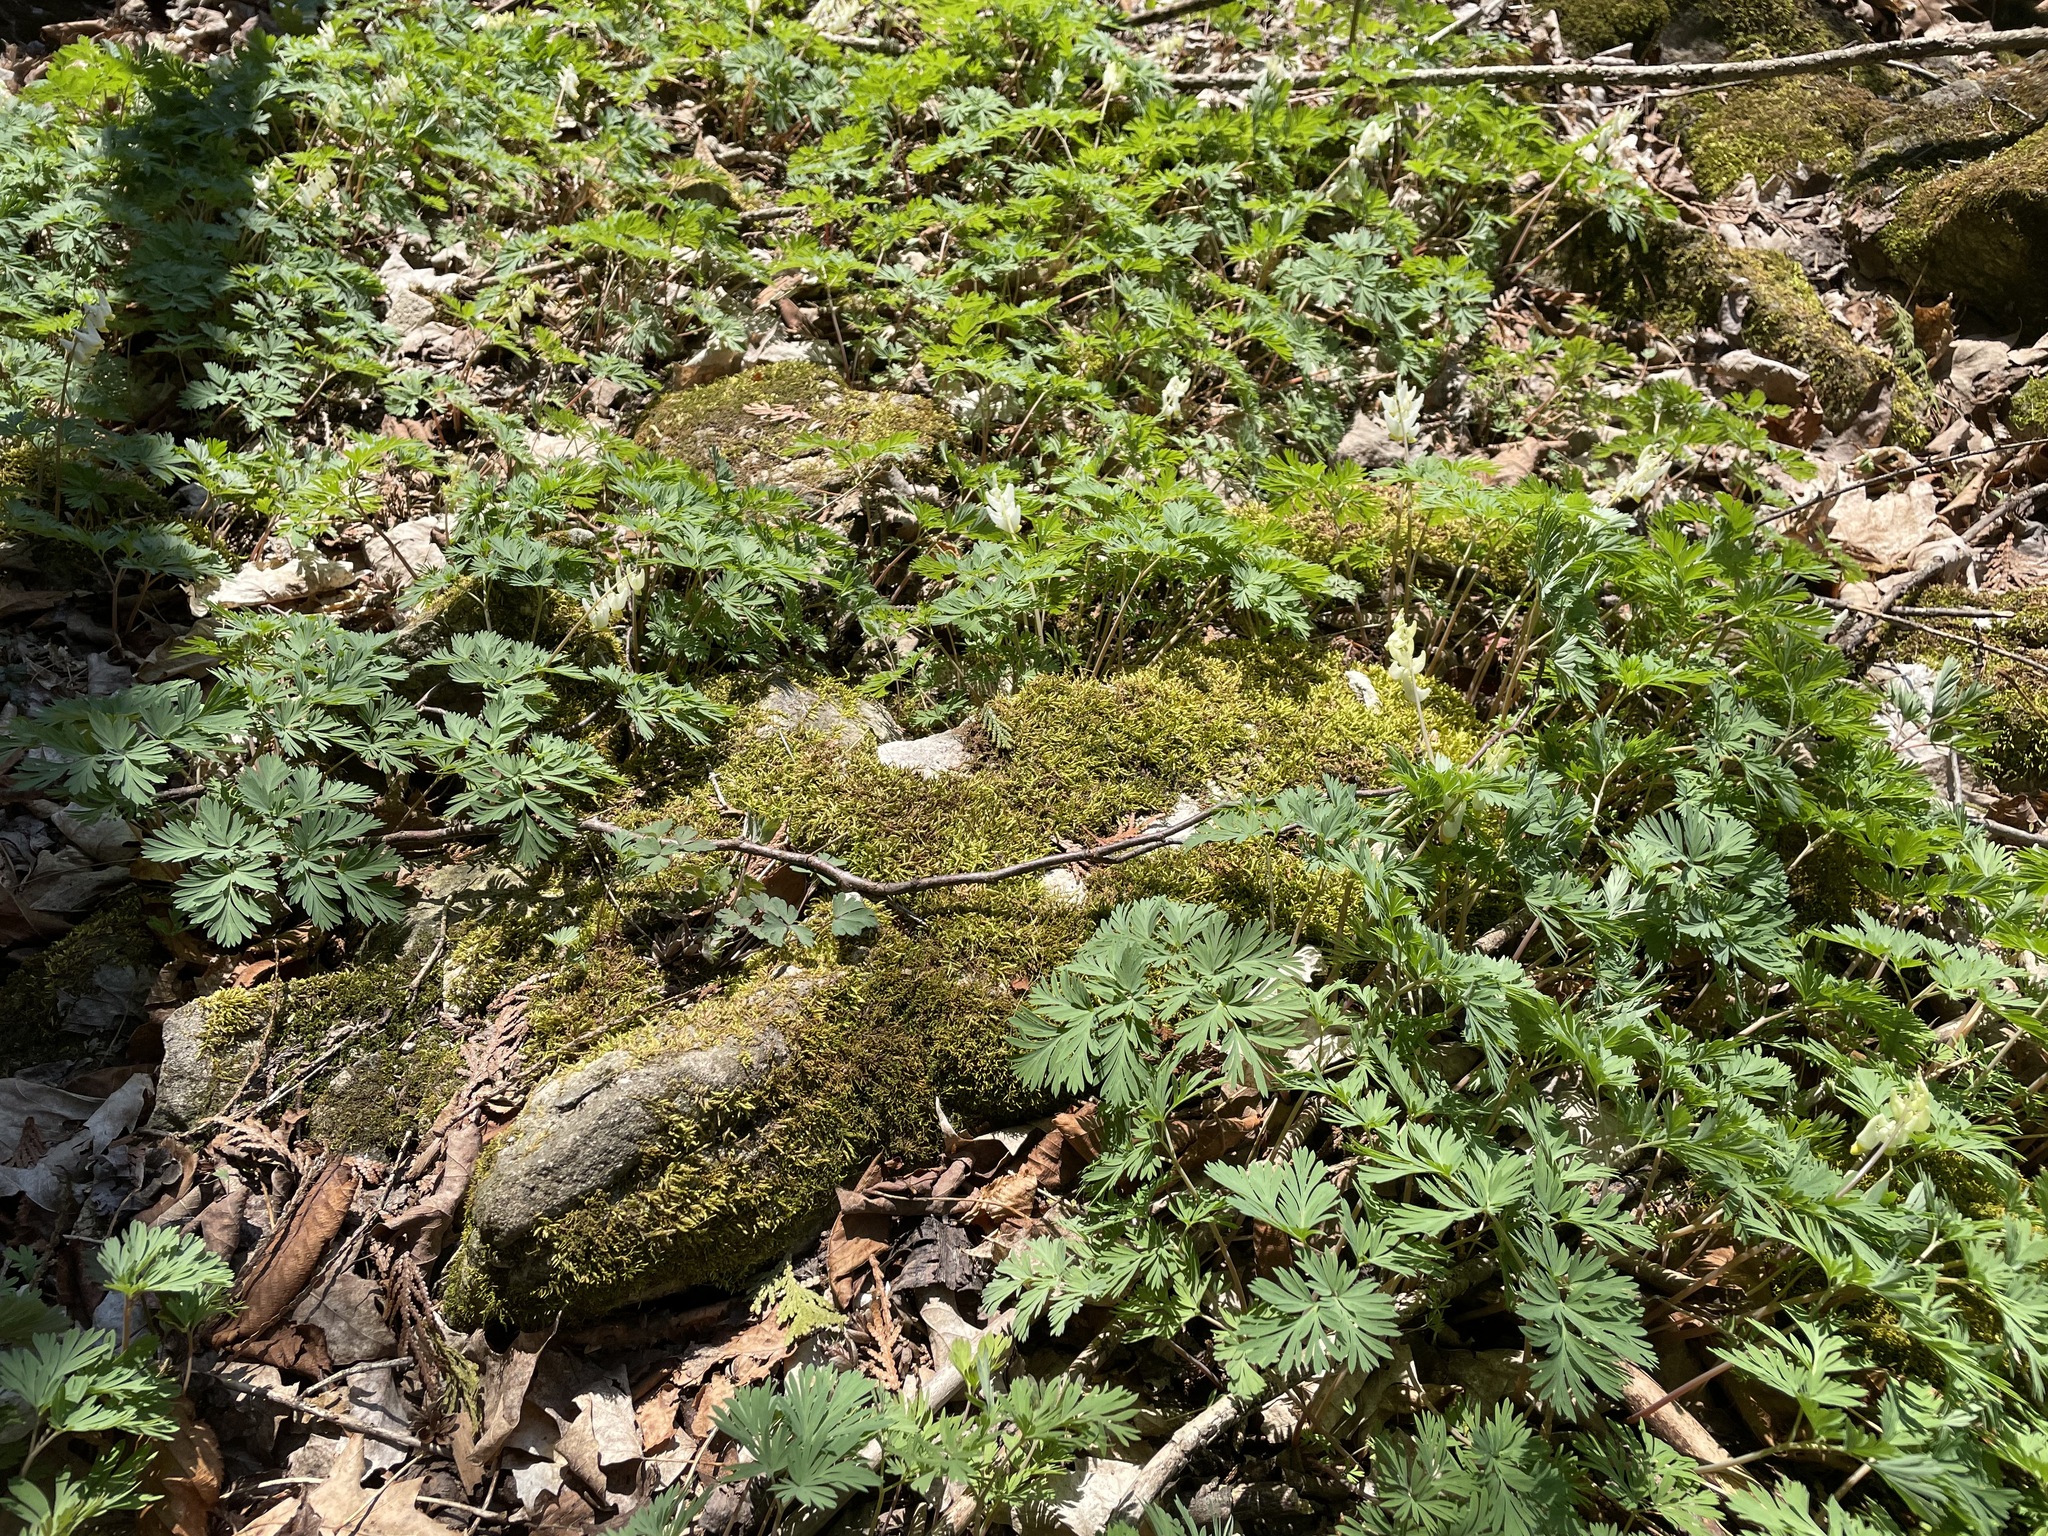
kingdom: Plantae
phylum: Tracheophyta
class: Magnoliopsida
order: Ranunculales
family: Papaveraceae
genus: Dicentra
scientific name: Dicentra cucullaria
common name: Dutchman's breeches
